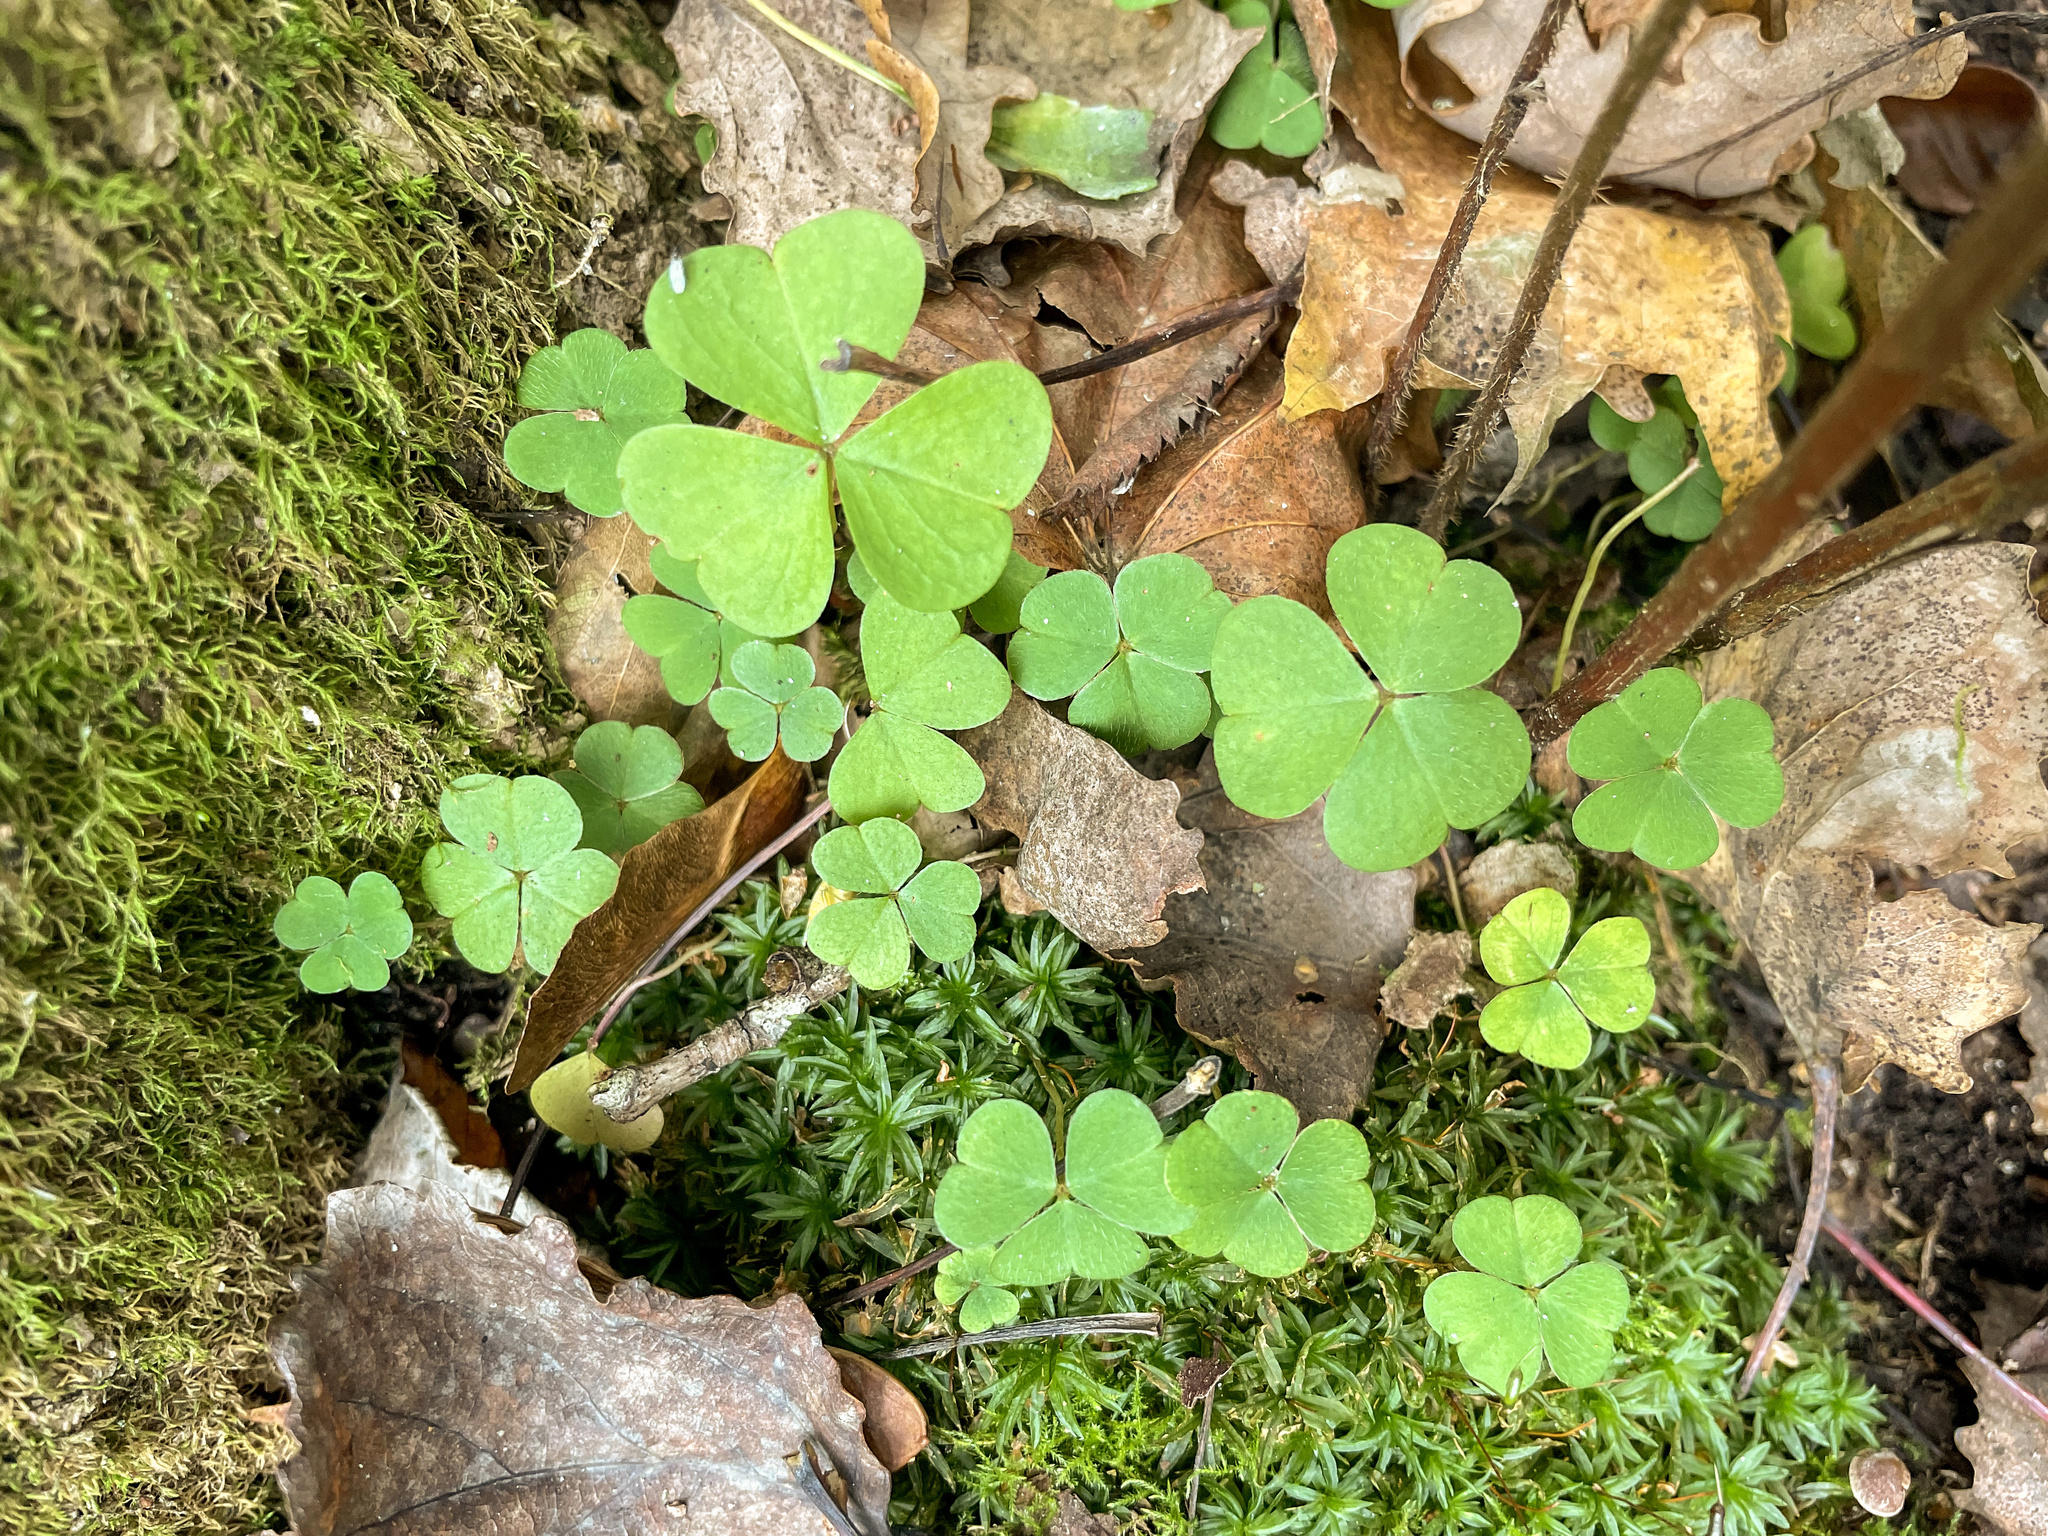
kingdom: Plantae
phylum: Tracheophyta
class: Magnoliopsida
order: Oxalidales
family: Oxalidaceae
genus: Oxalis
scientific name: Oxalis acetosella
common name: Wood-sorrel
